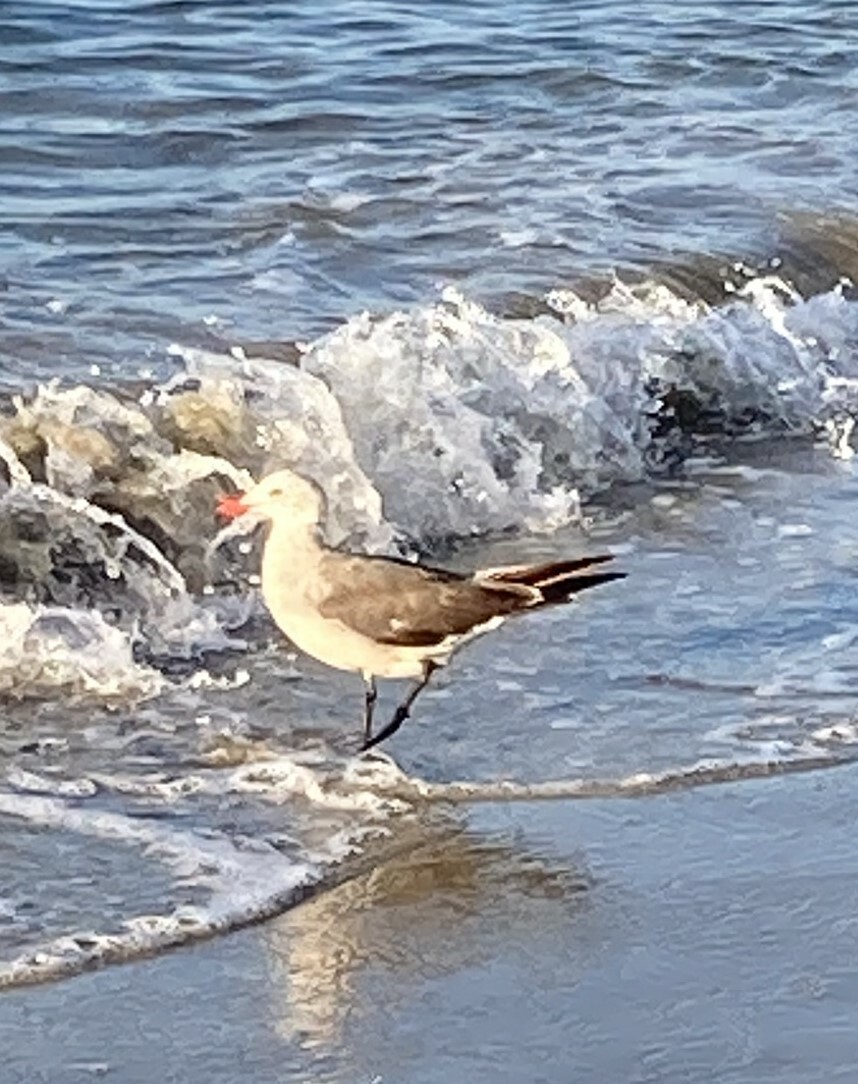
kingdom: Animalia
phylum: Chordata
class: Aves
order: Charadriiformes
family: Laridae
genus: Larus
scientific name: Larus heermanni
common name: Heermann's gull
